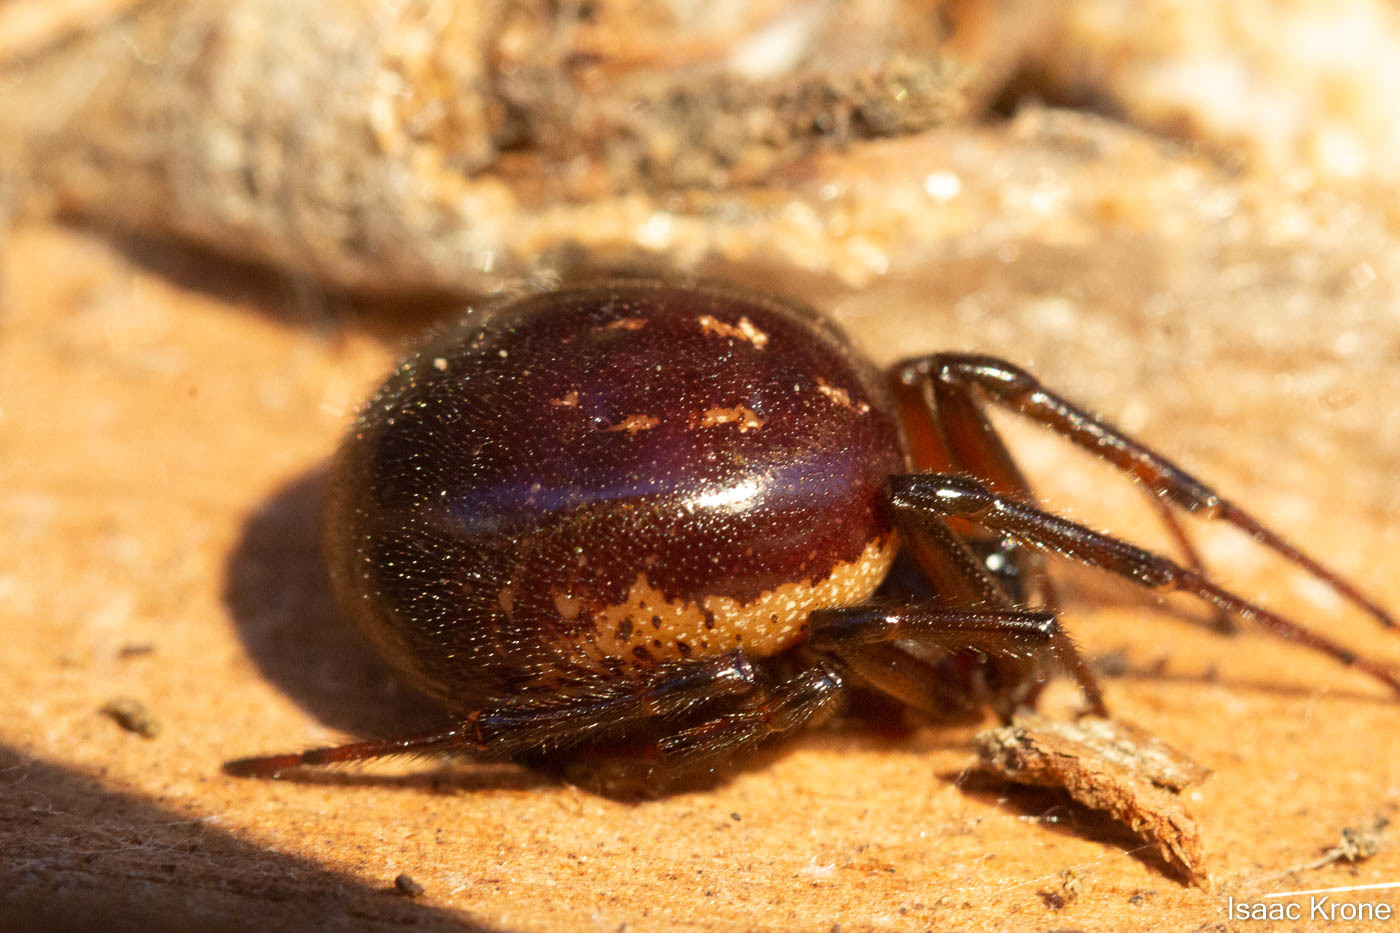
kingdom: Animalia
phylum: Arthropoda
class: Arachnida
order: Araneae
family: Theridiidae
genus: Steatoda
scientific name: Steatoda nobilis
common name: Cobweb weaver
